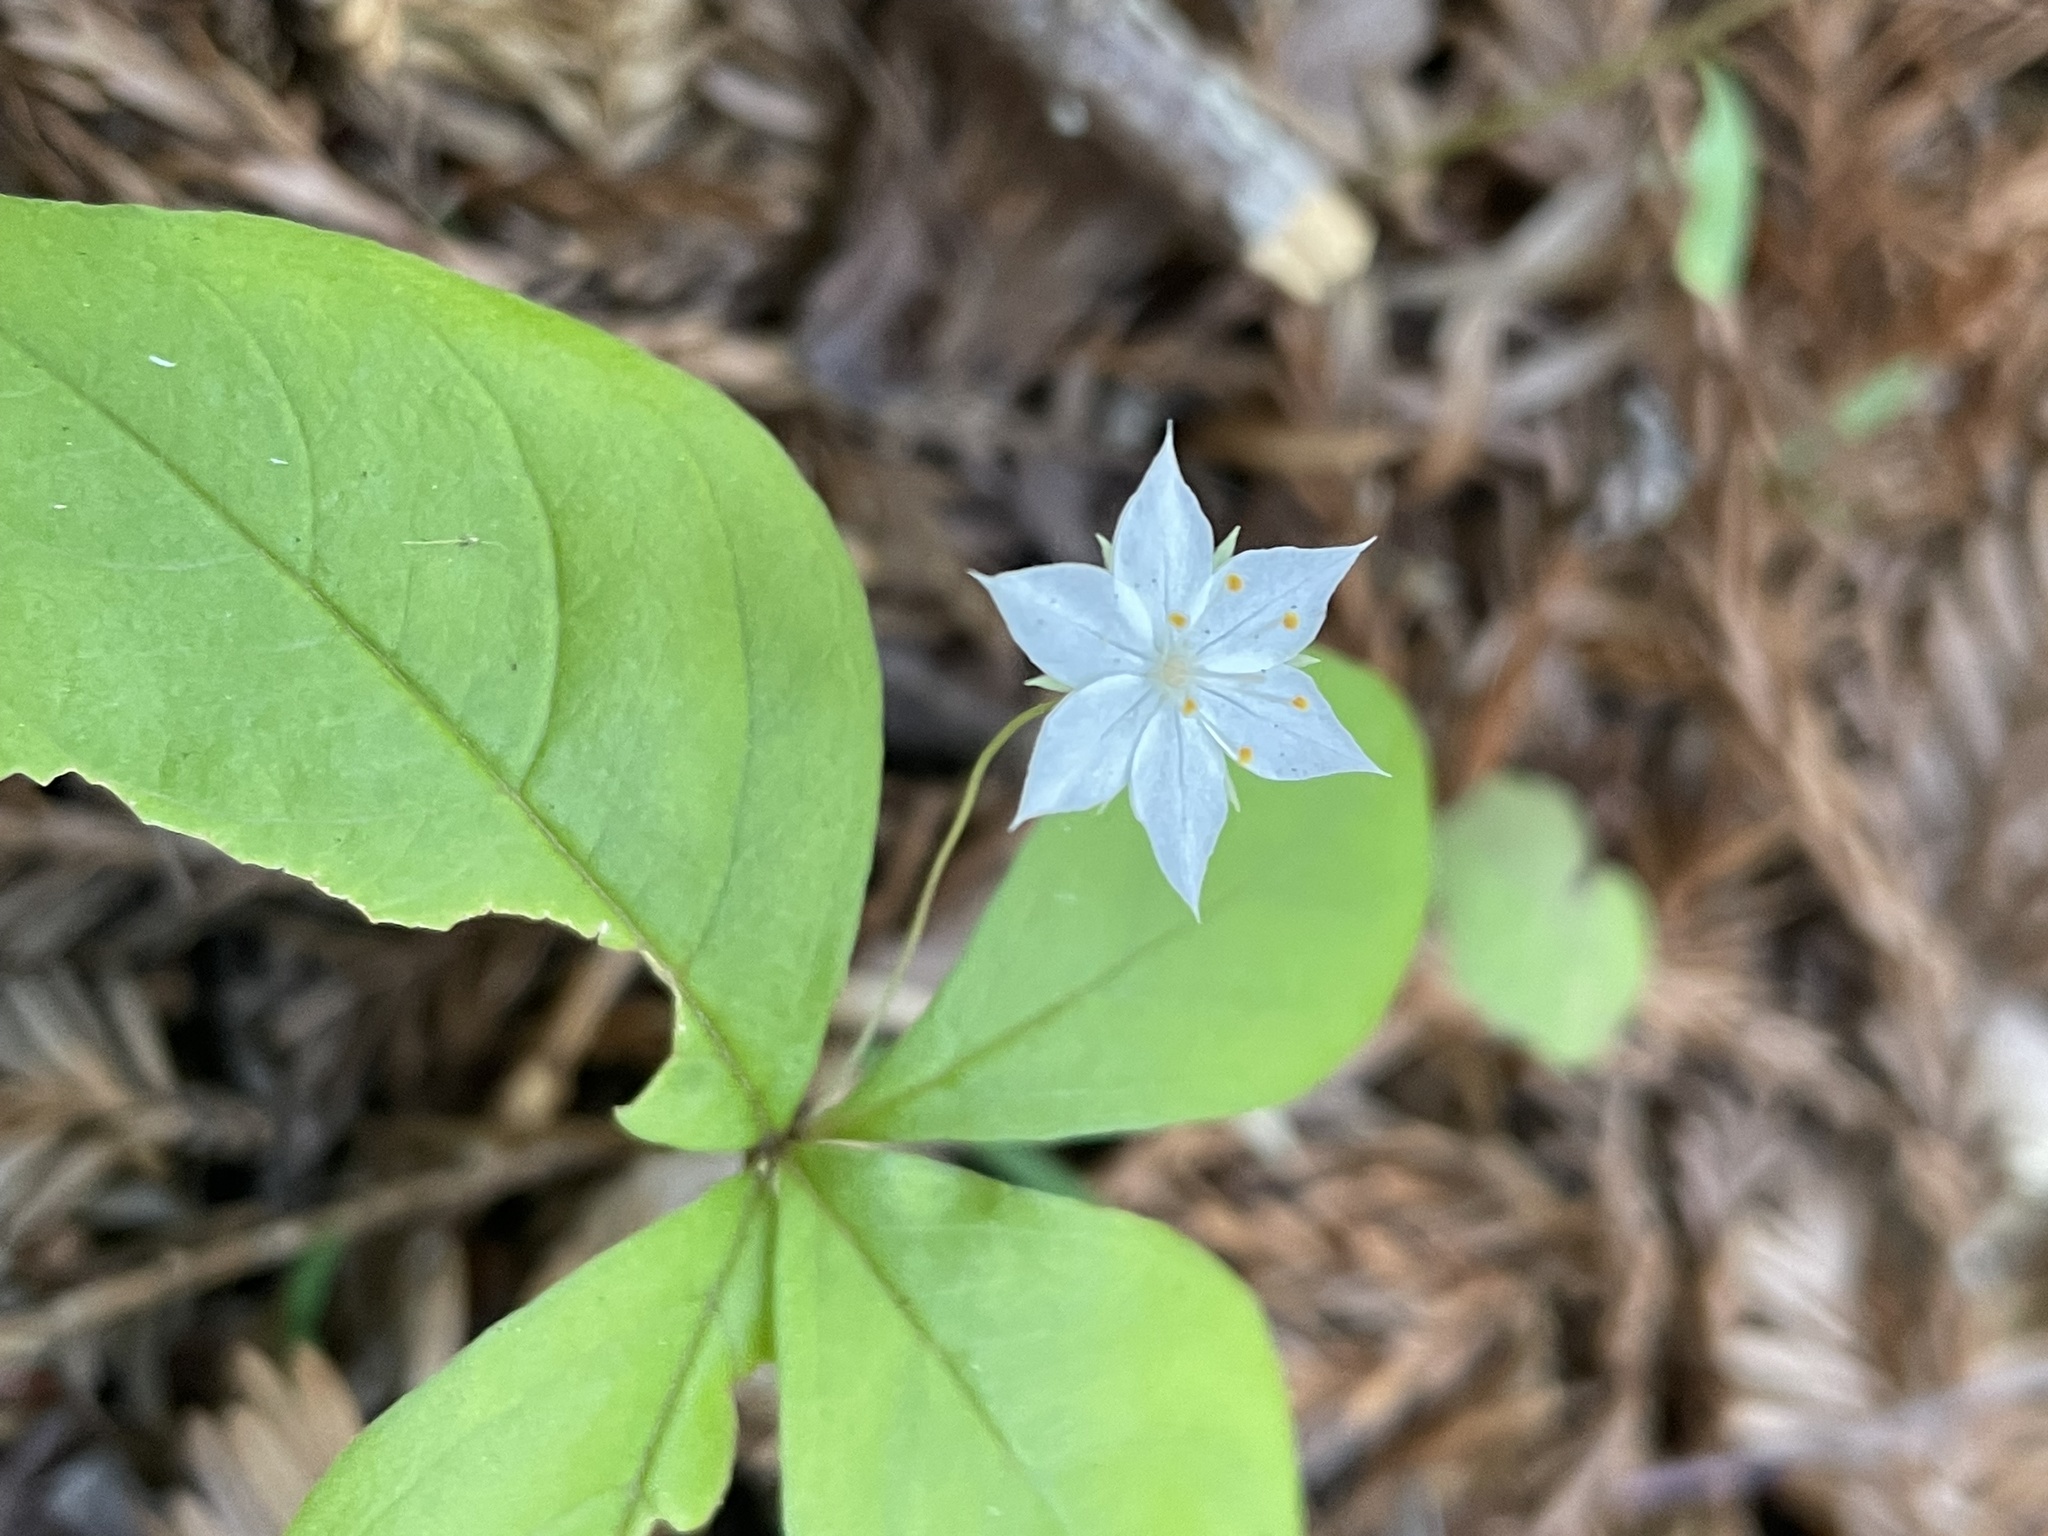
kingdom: Plantae
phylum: Tracheophyta
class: Magnoliopsida
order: Ericales
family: Primulaceae
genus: Lysimachia
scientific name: Lysimachia latifolia
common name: Pacific starflower
